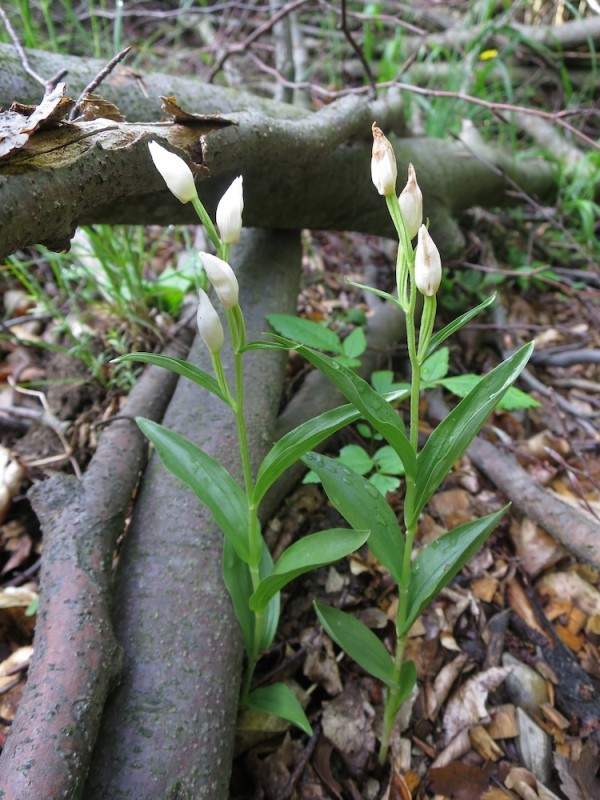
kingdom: Plantae
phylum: Tracheophyta
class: Liliopsida
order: Asparagales
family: Orchidaceae
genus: Cephalanthera
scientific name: Cephalanthera damasonium
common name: White helleborine
